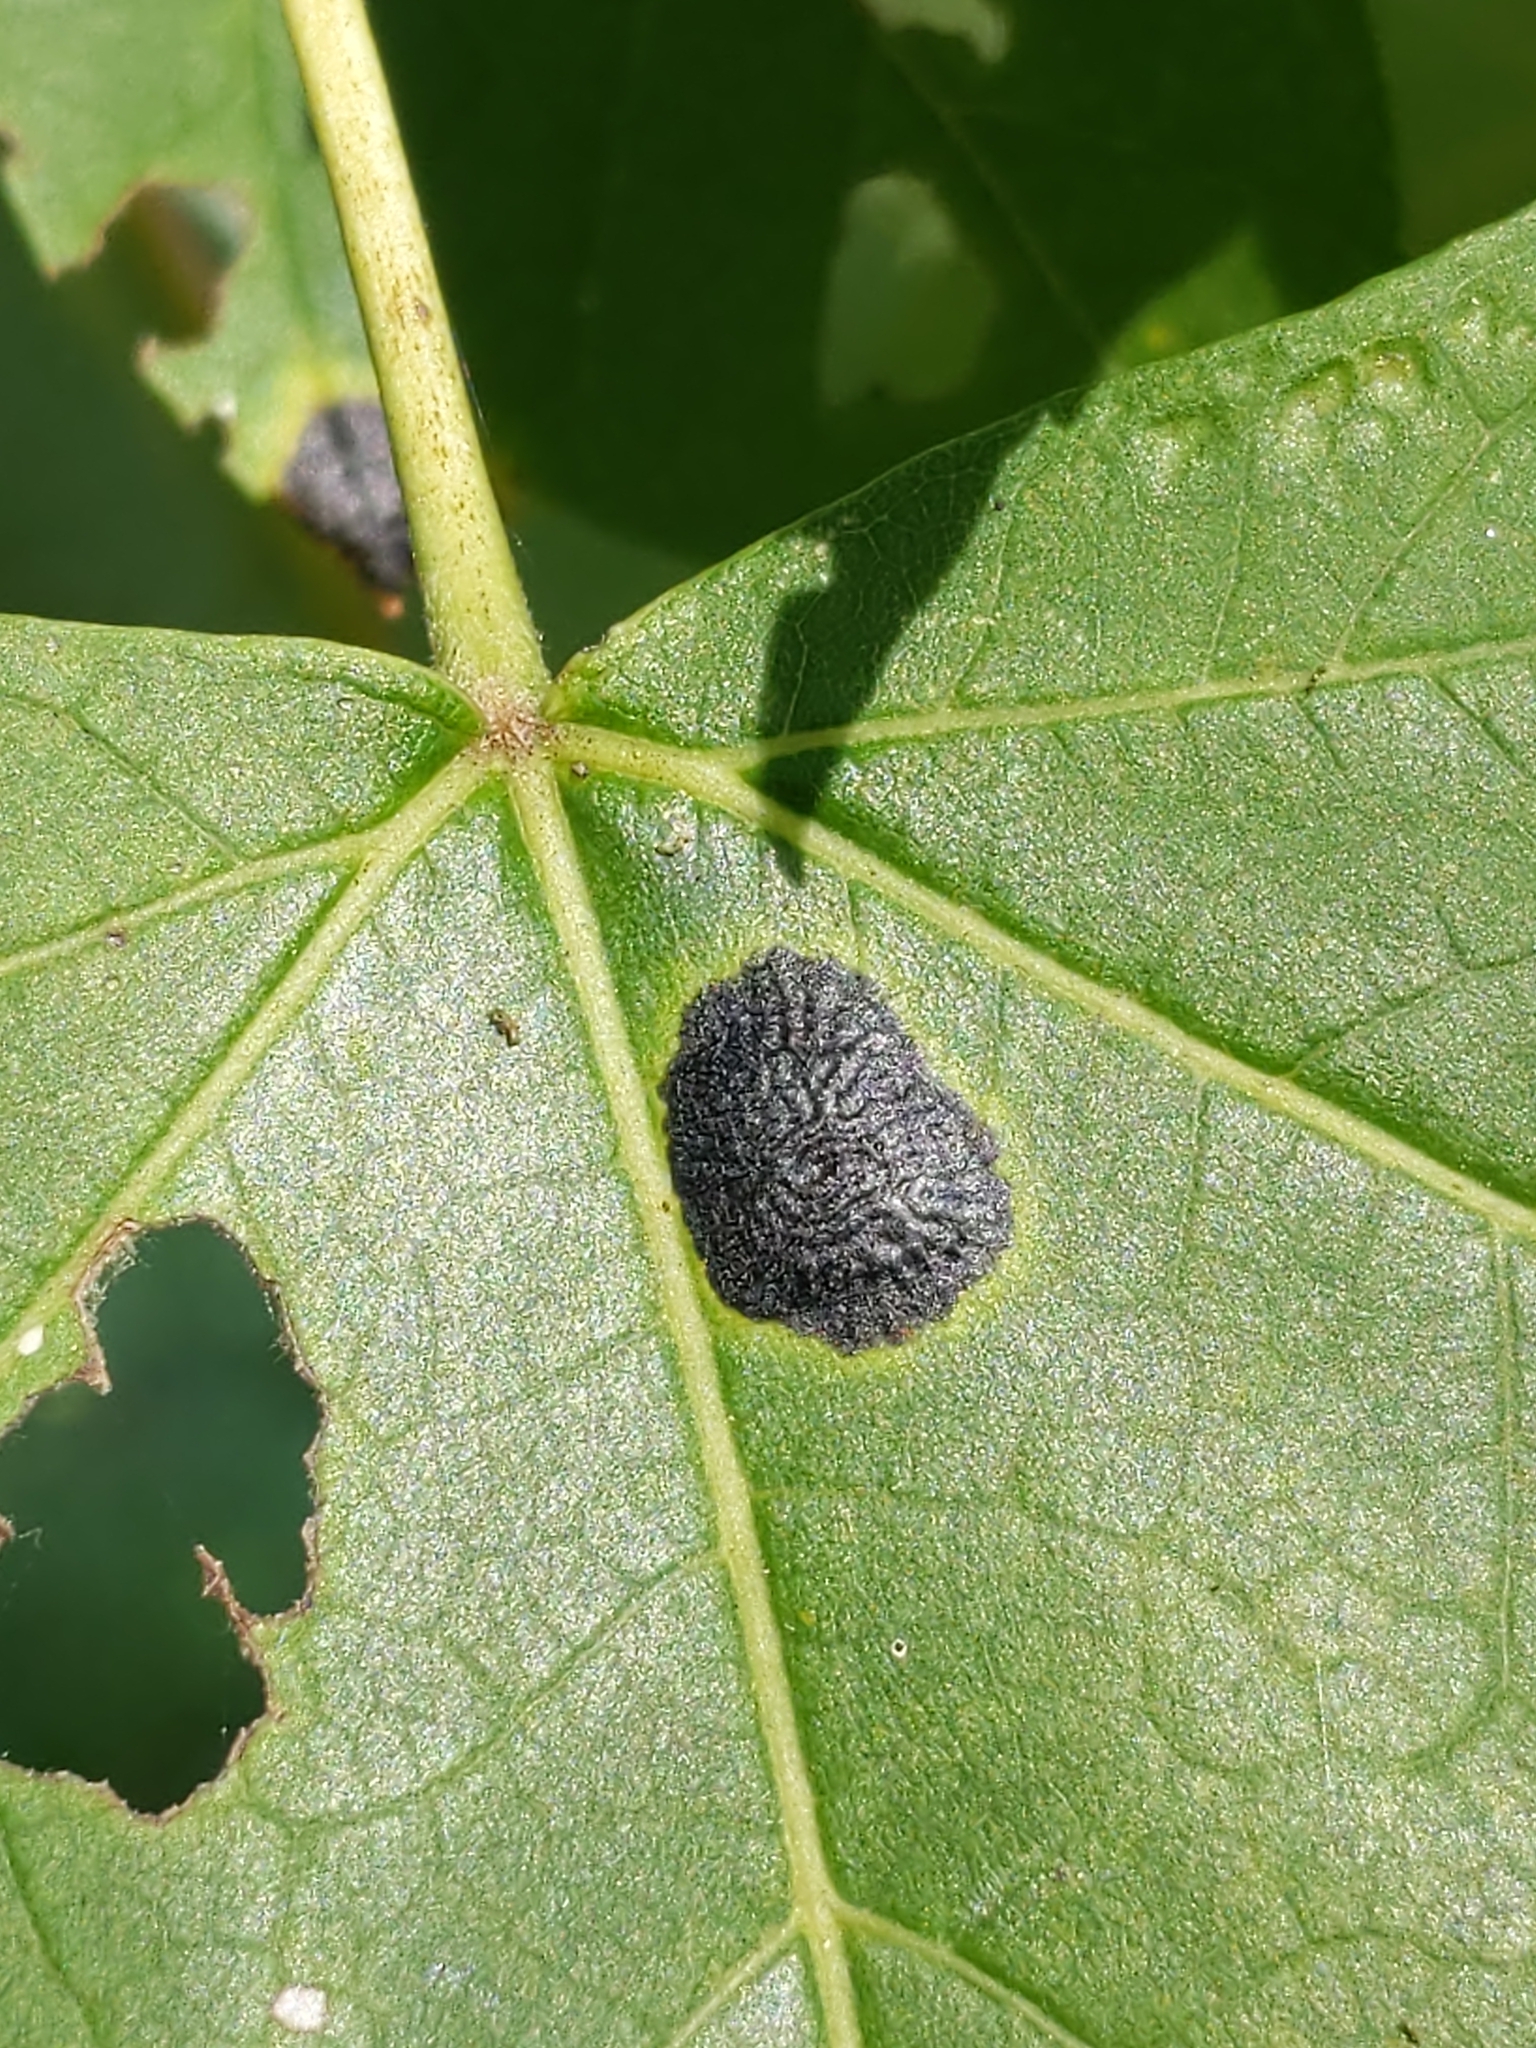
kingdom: Fungi
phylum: Ascomycota
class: Leotiomycetes
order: Rhytismatales
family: Rhytismataceae
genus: Rhytisma
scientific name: Rhytisma americanum
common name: American tar spot
